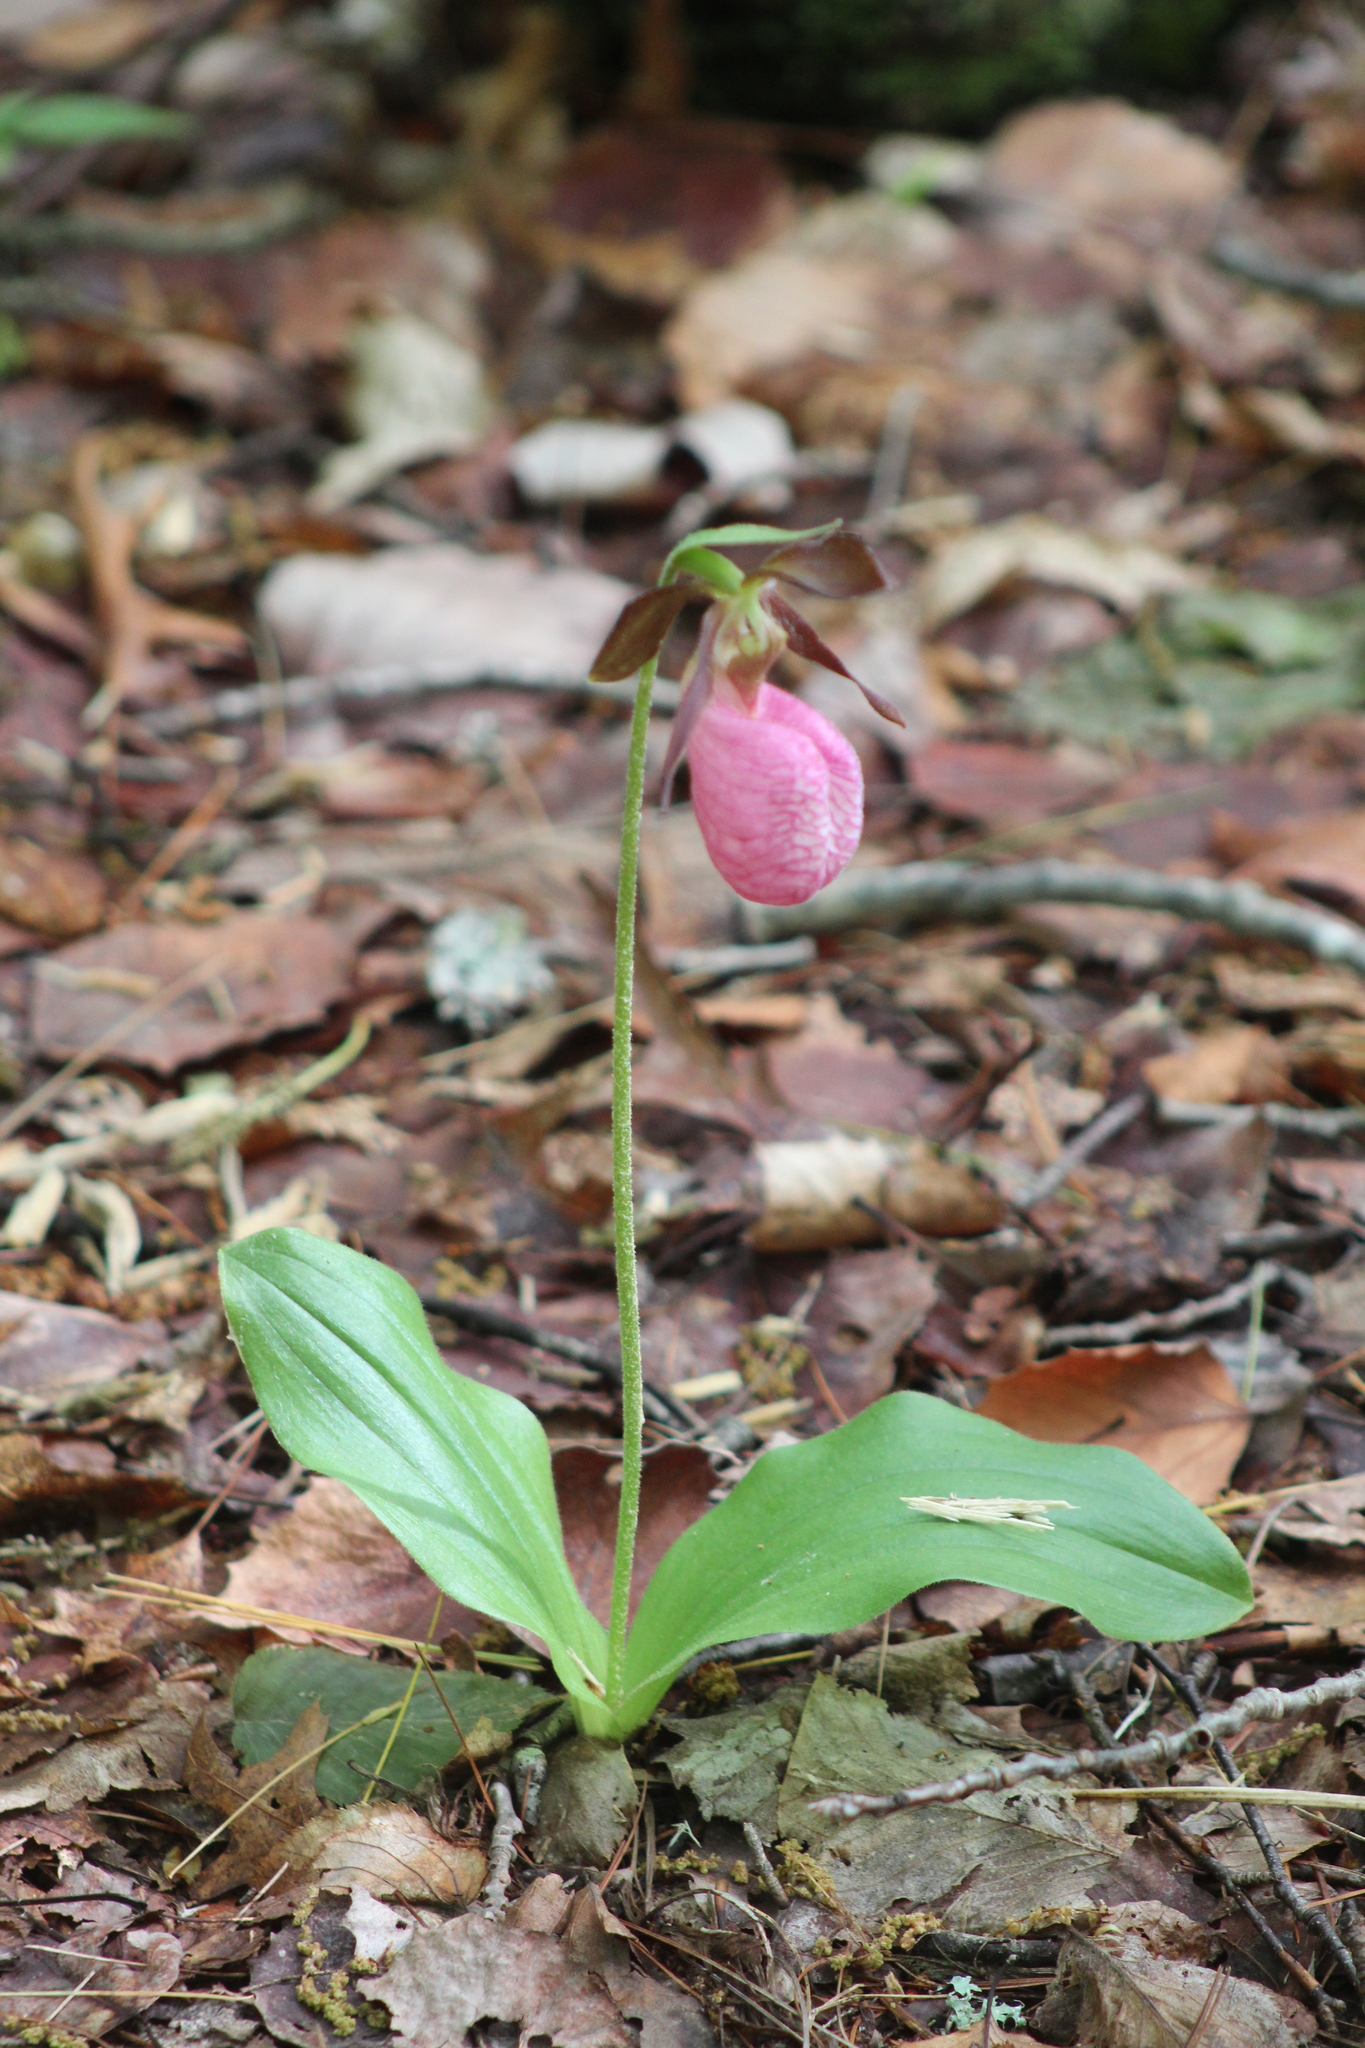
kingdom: Plantae
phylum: Tracheophyta
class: Liliopsida
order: Asparagales
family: Orchidaceae
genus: Cypripedium
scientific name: Cypripedium acaule
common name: Pink lady's-slipper
